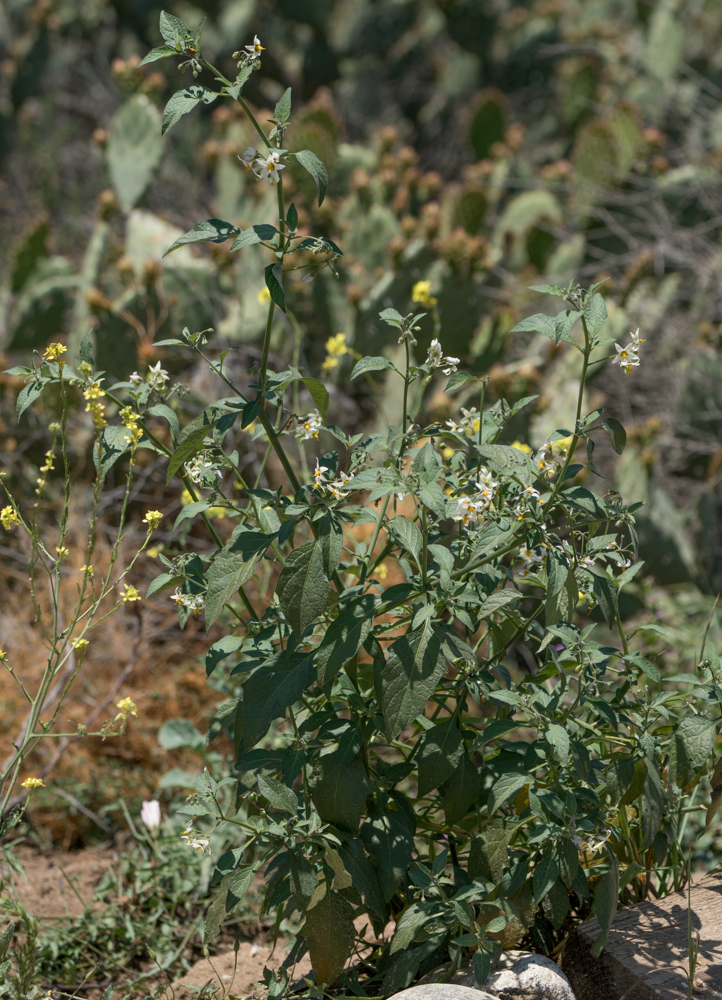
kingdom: Plantae
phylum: Tracheophyta
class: Magnoliopsida
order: Solanales
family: Solanaceae
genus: Solanum
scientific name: Solanum douglasii
